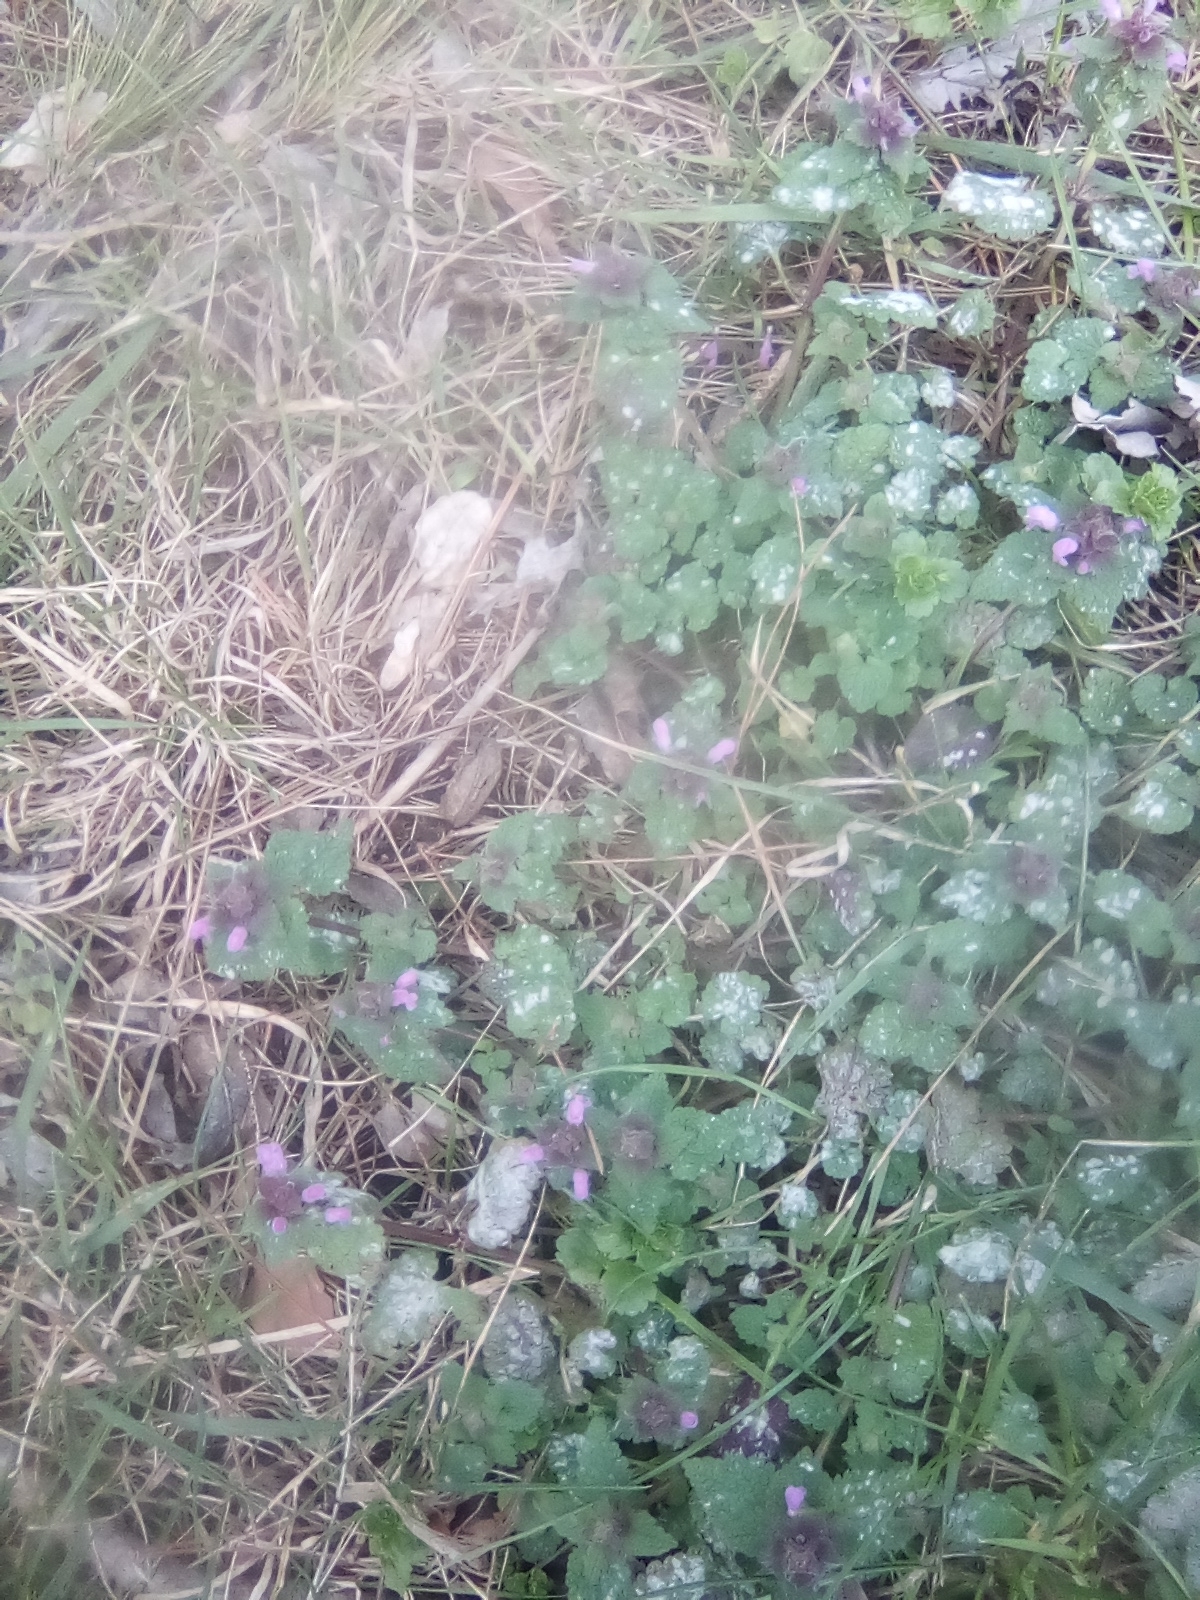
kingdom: Plantae
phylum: Tracheophyta
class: Magnoliopsida
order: Lamiales
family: Lamiaceae
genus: Lamium
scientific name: Lamium purpureum
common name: Red dead-nettle
